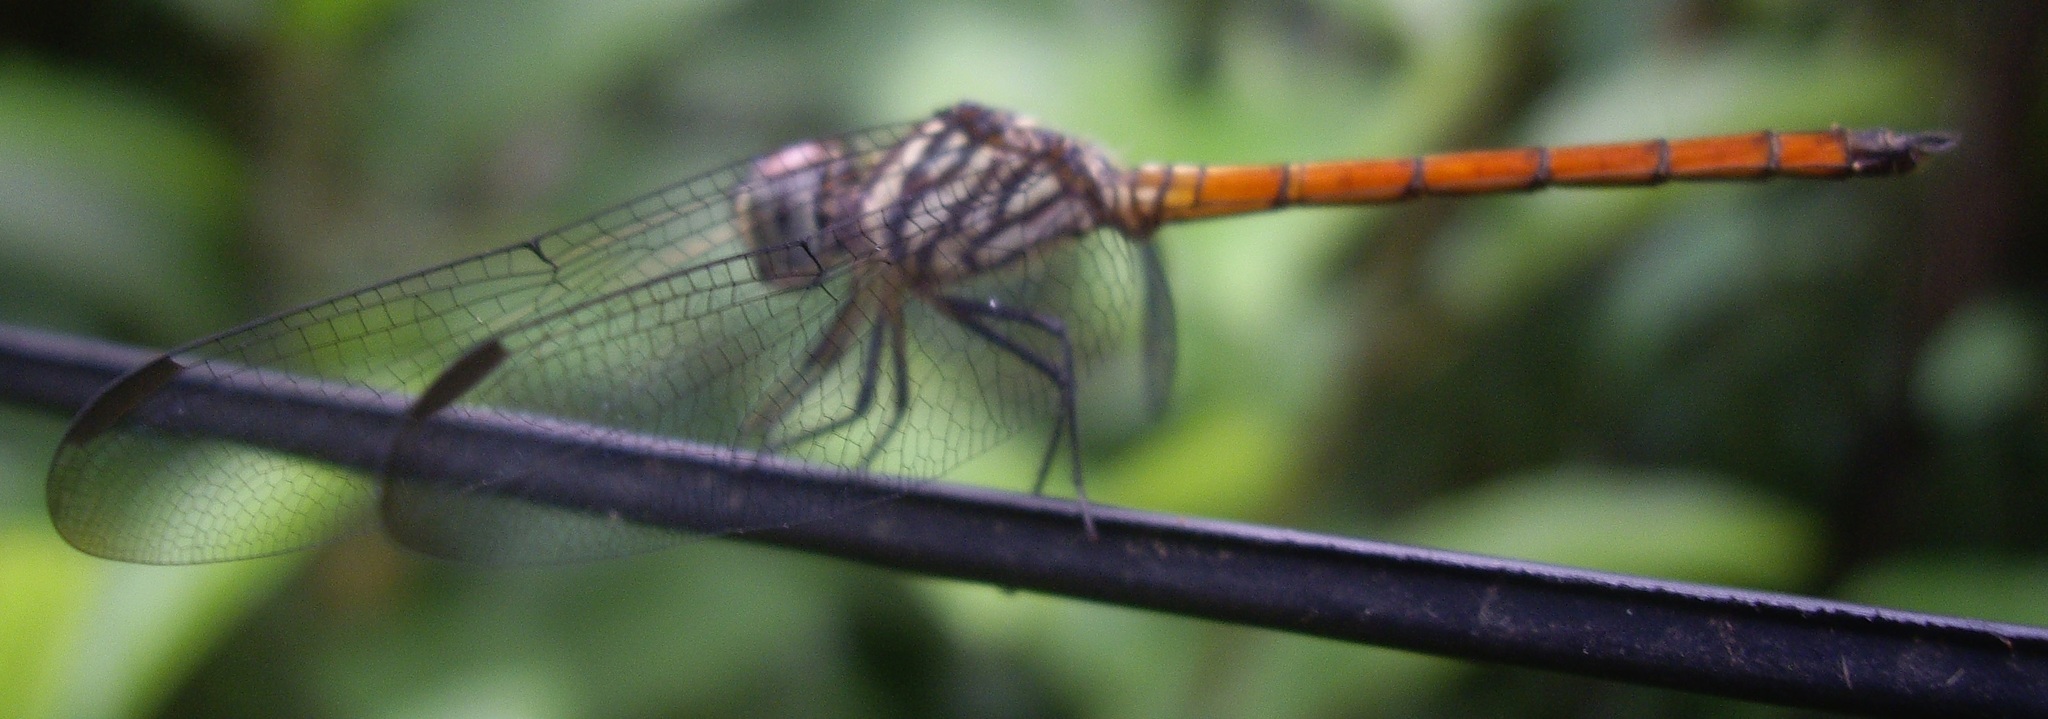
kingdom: Animalia
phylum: Arthropoda
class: Insecta
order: Odonata
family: Libellulidae
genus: Lathrecista
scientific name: Lathrecista asiatica
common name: Scarlet grenadier
